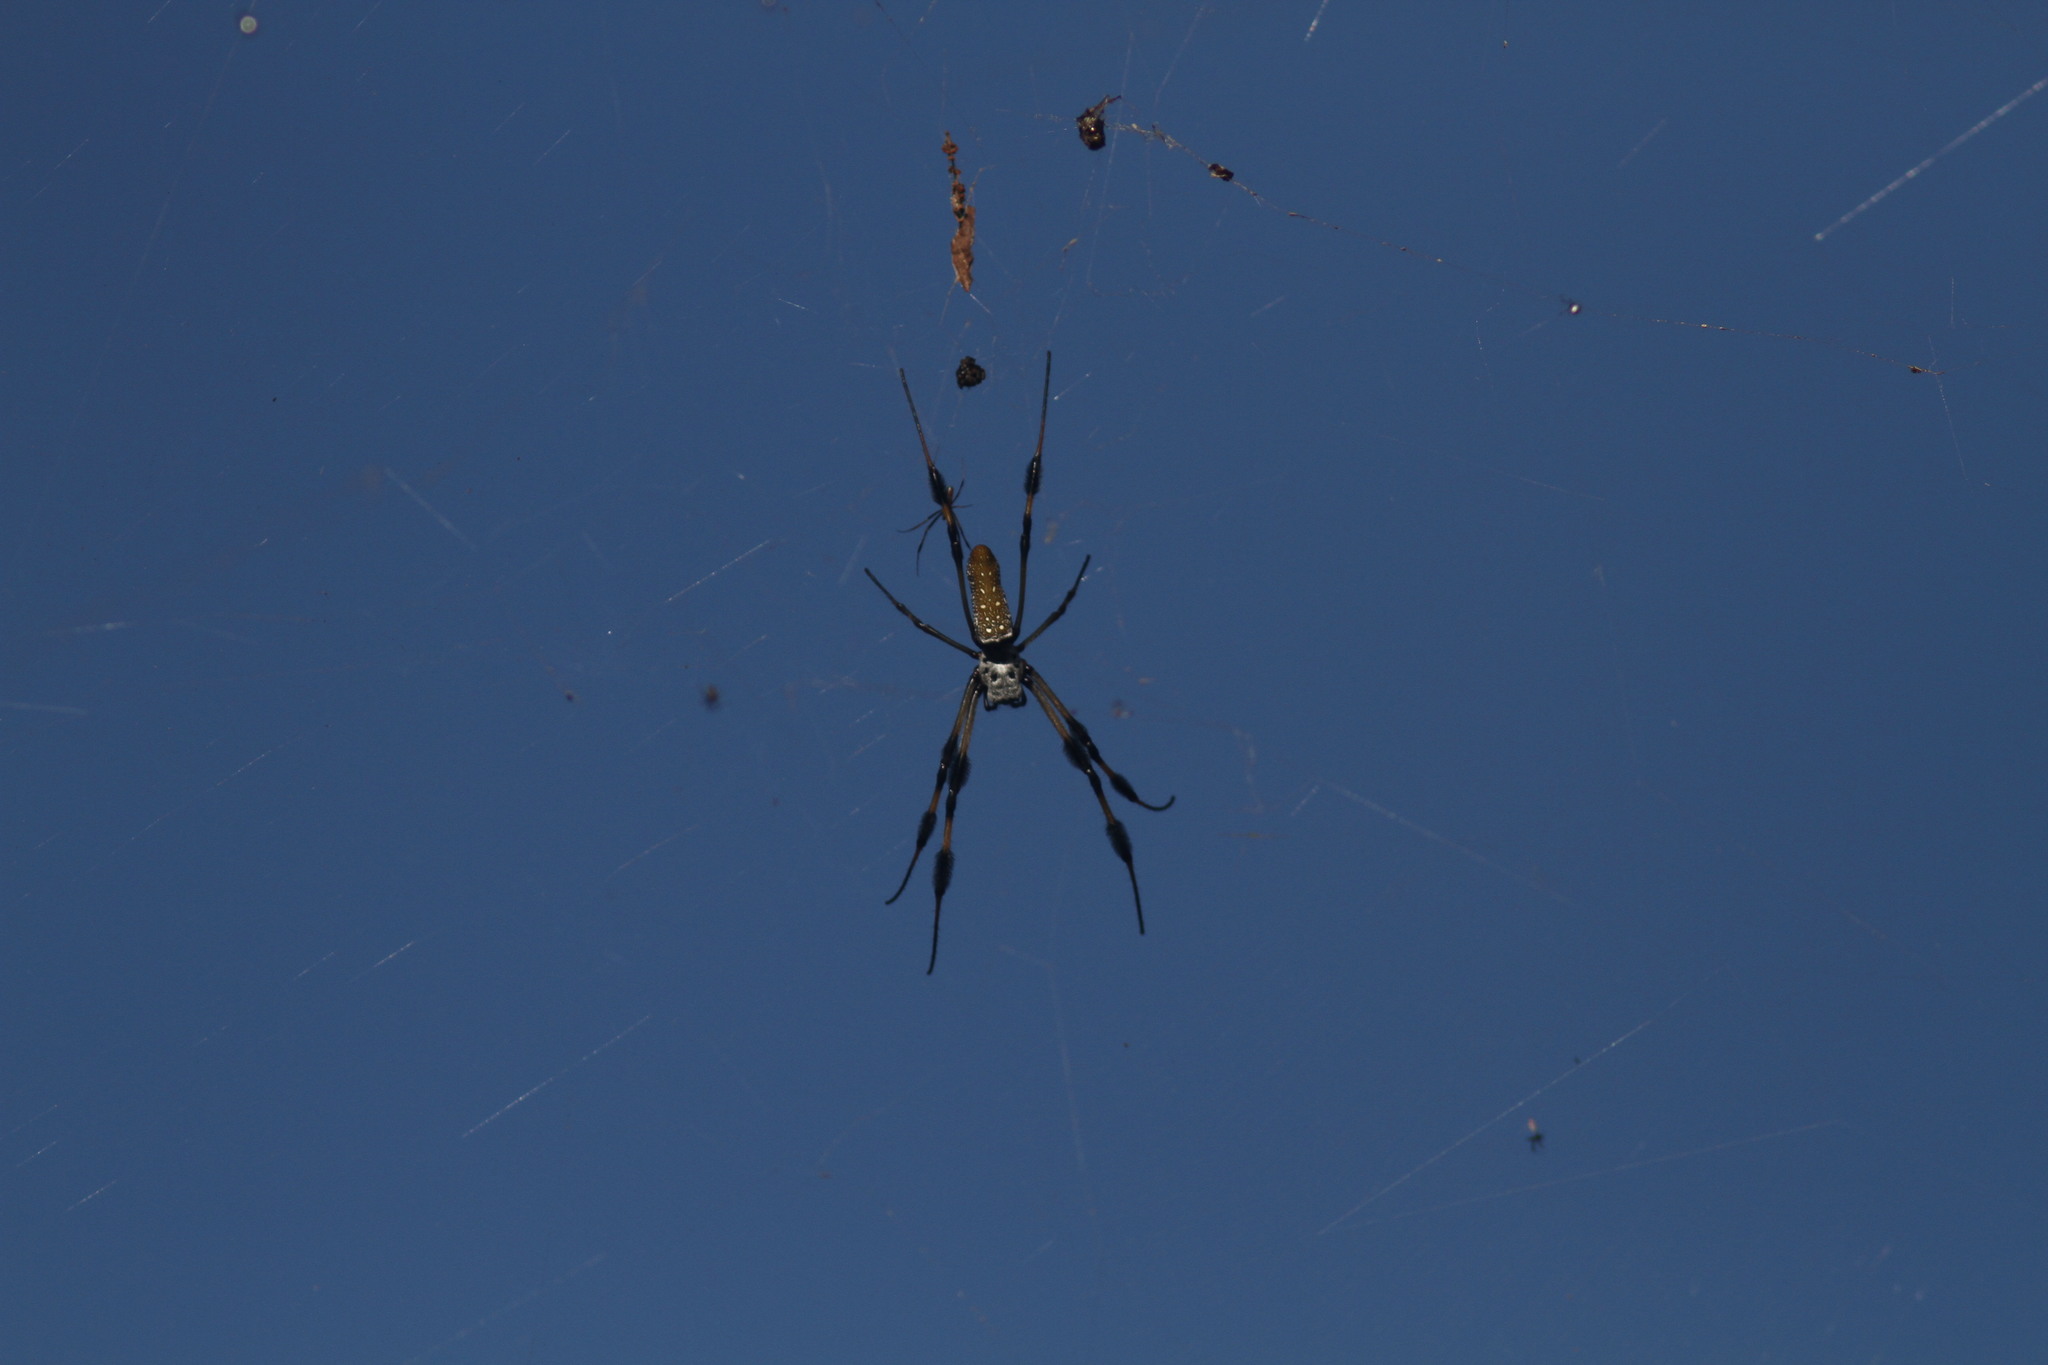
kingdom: Animalia
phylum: Arthropoda
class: Arachnida
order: Araneae
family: Araneidae
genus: Trichonephila
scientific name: Trichonephila clavipes
